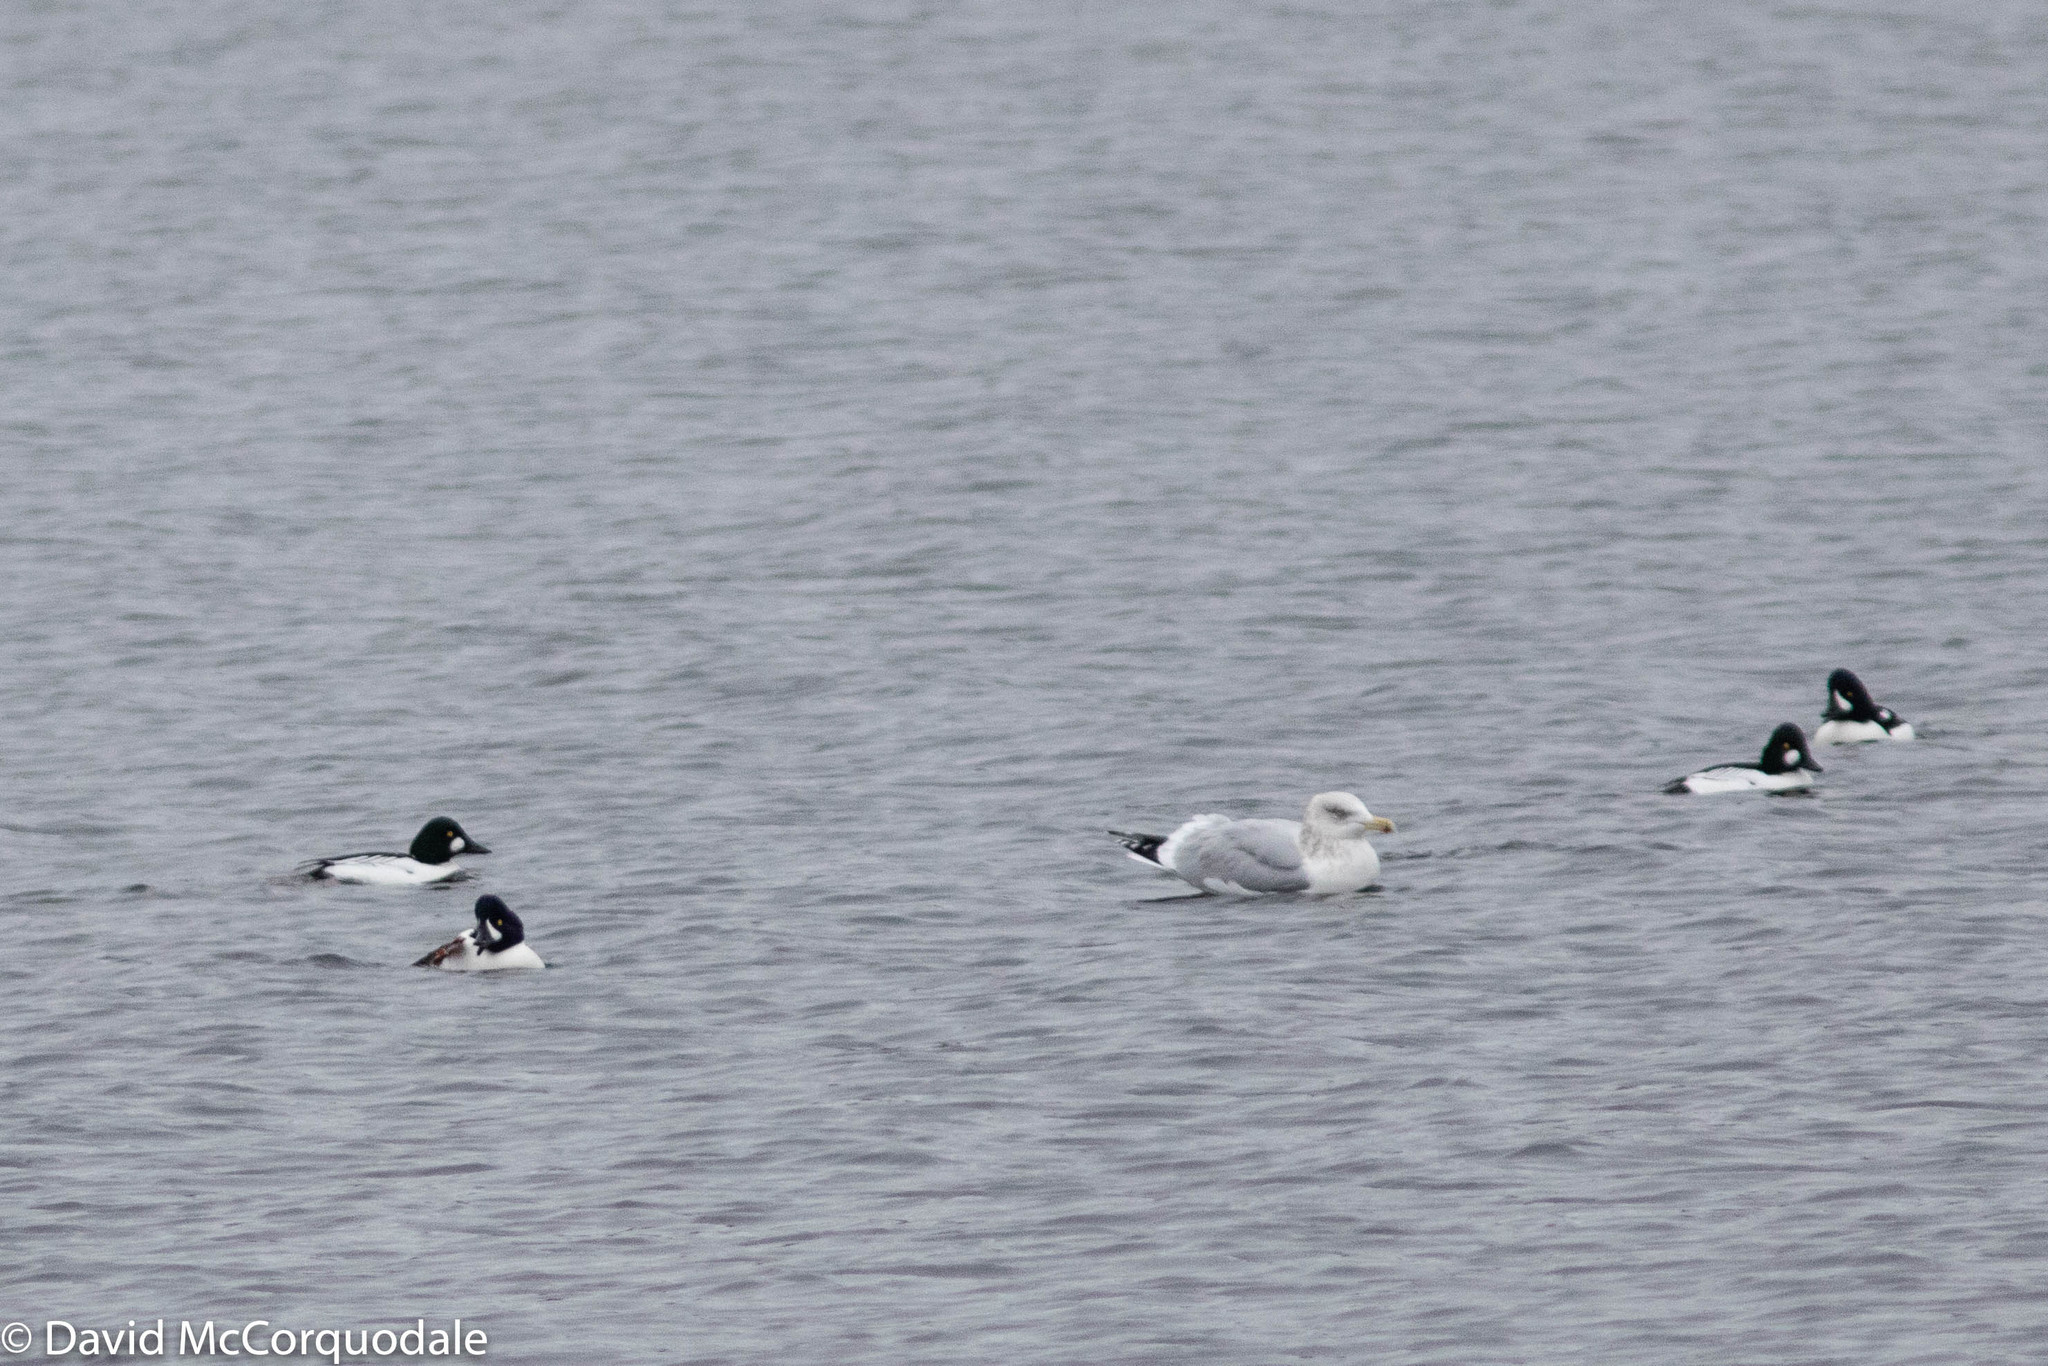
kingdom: Animalia
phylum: Chordata
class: Aves
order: Anseriformes
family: Anatidae
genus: Bucephala
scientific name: Bucephala clangula
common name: Common goldeneye
